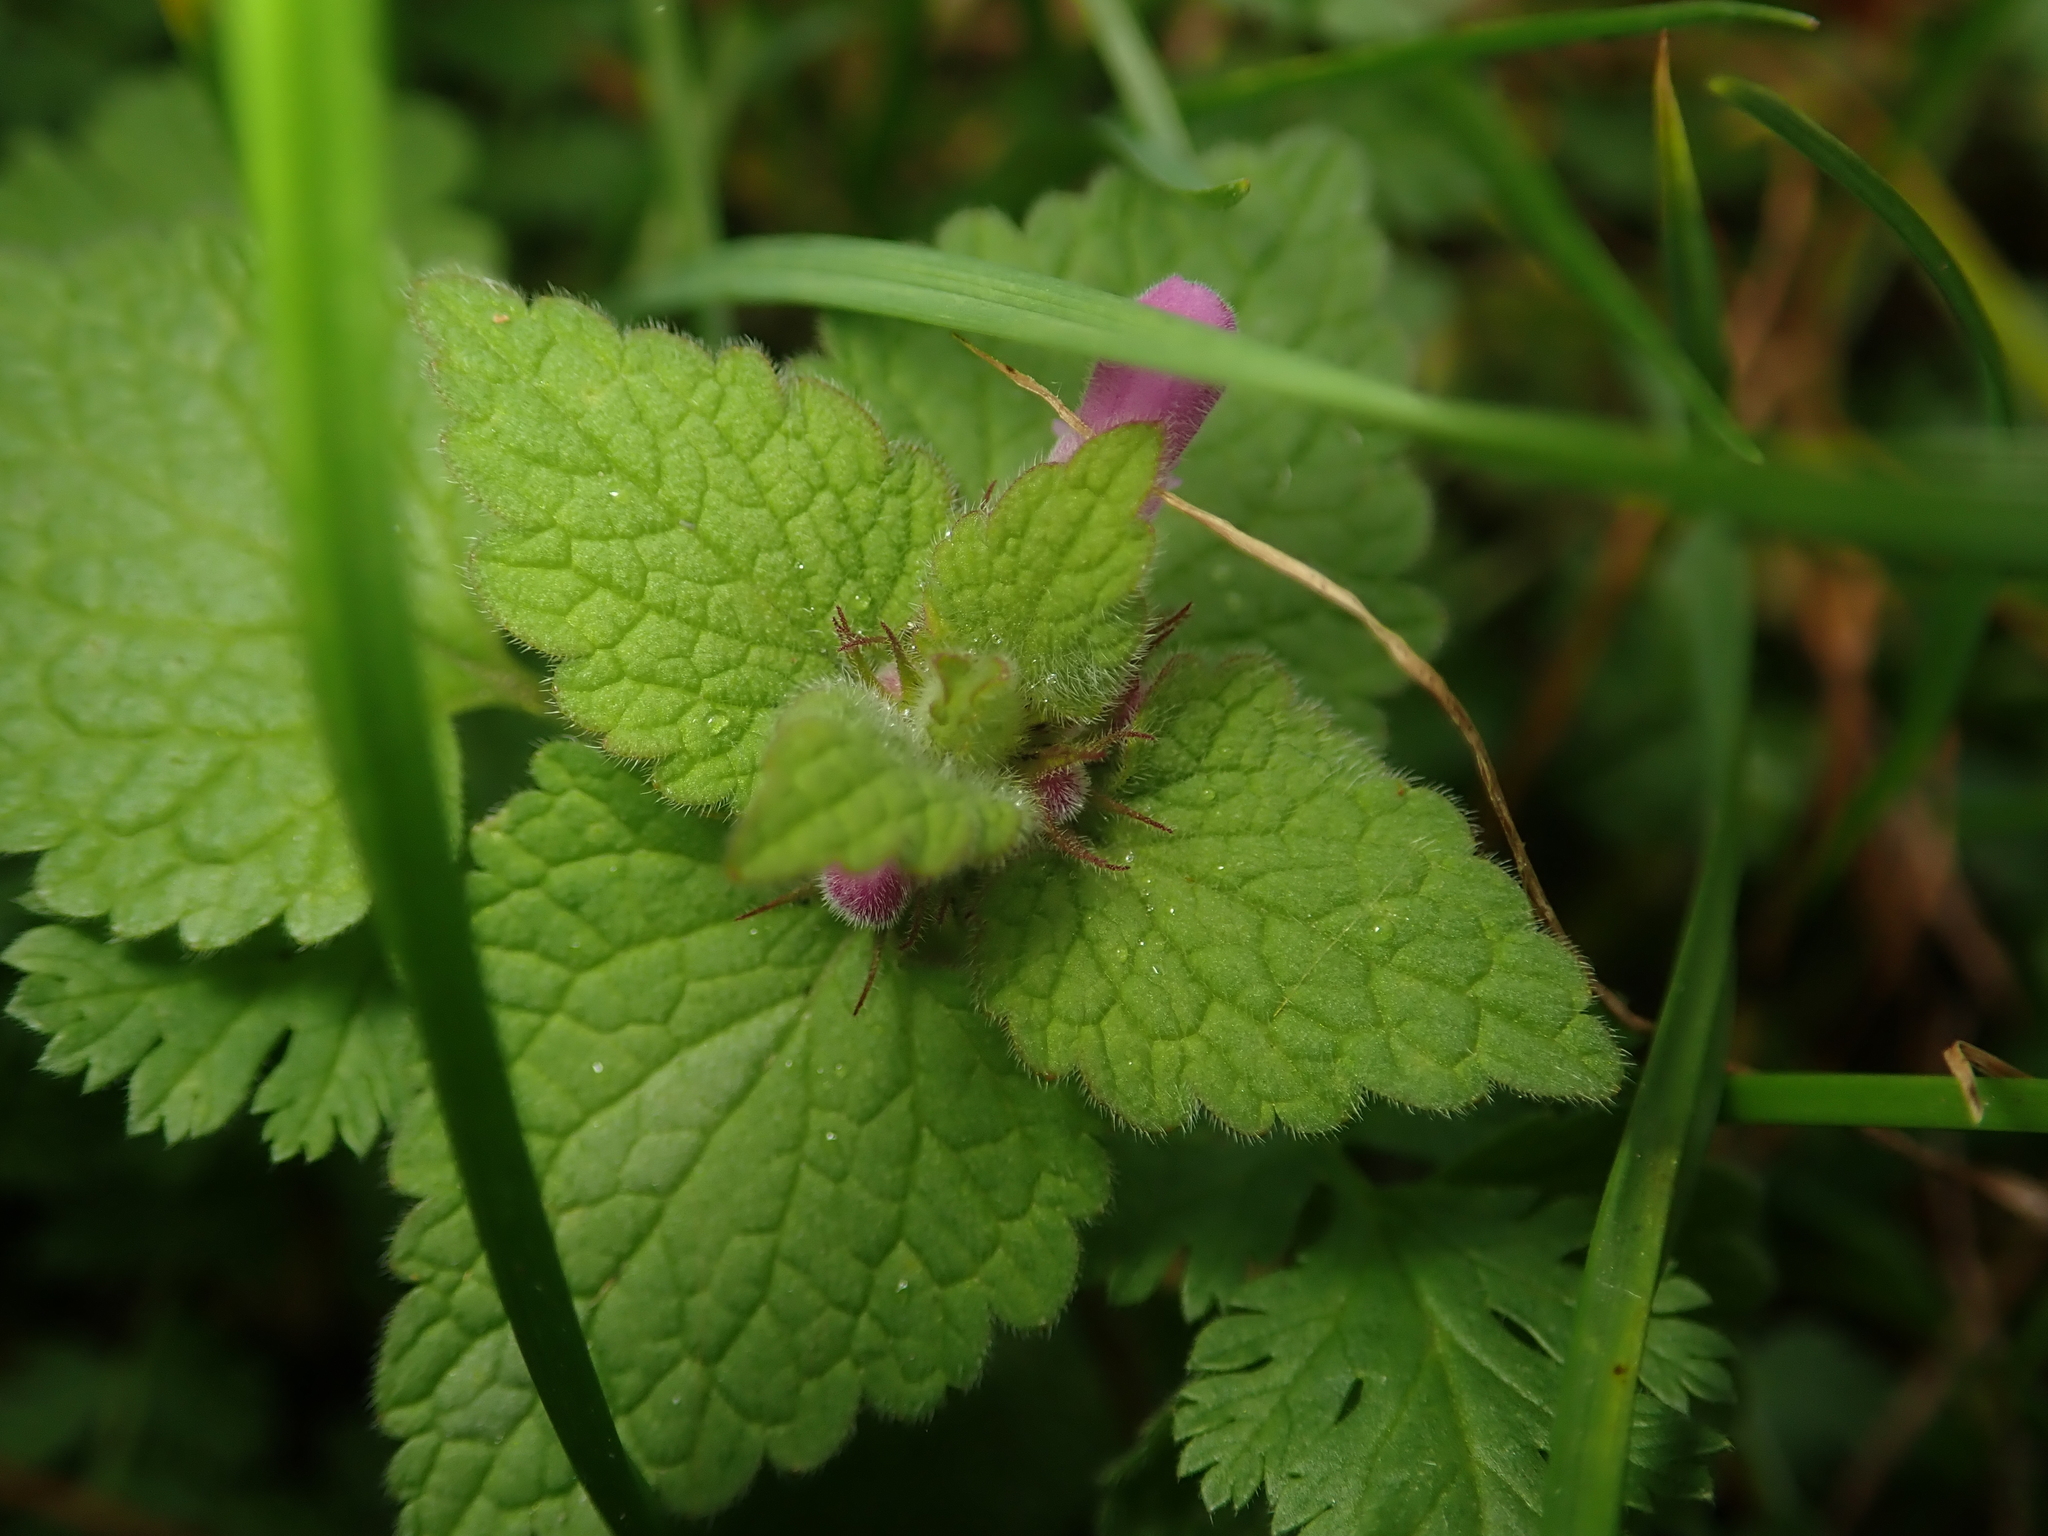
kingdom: Plantae
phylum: Tracheophyta
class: Magnoliopsida
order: Lamiales
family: Lamiaceae
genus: Lamium
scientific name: Lamium purpureum
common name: Red dead-nettle
